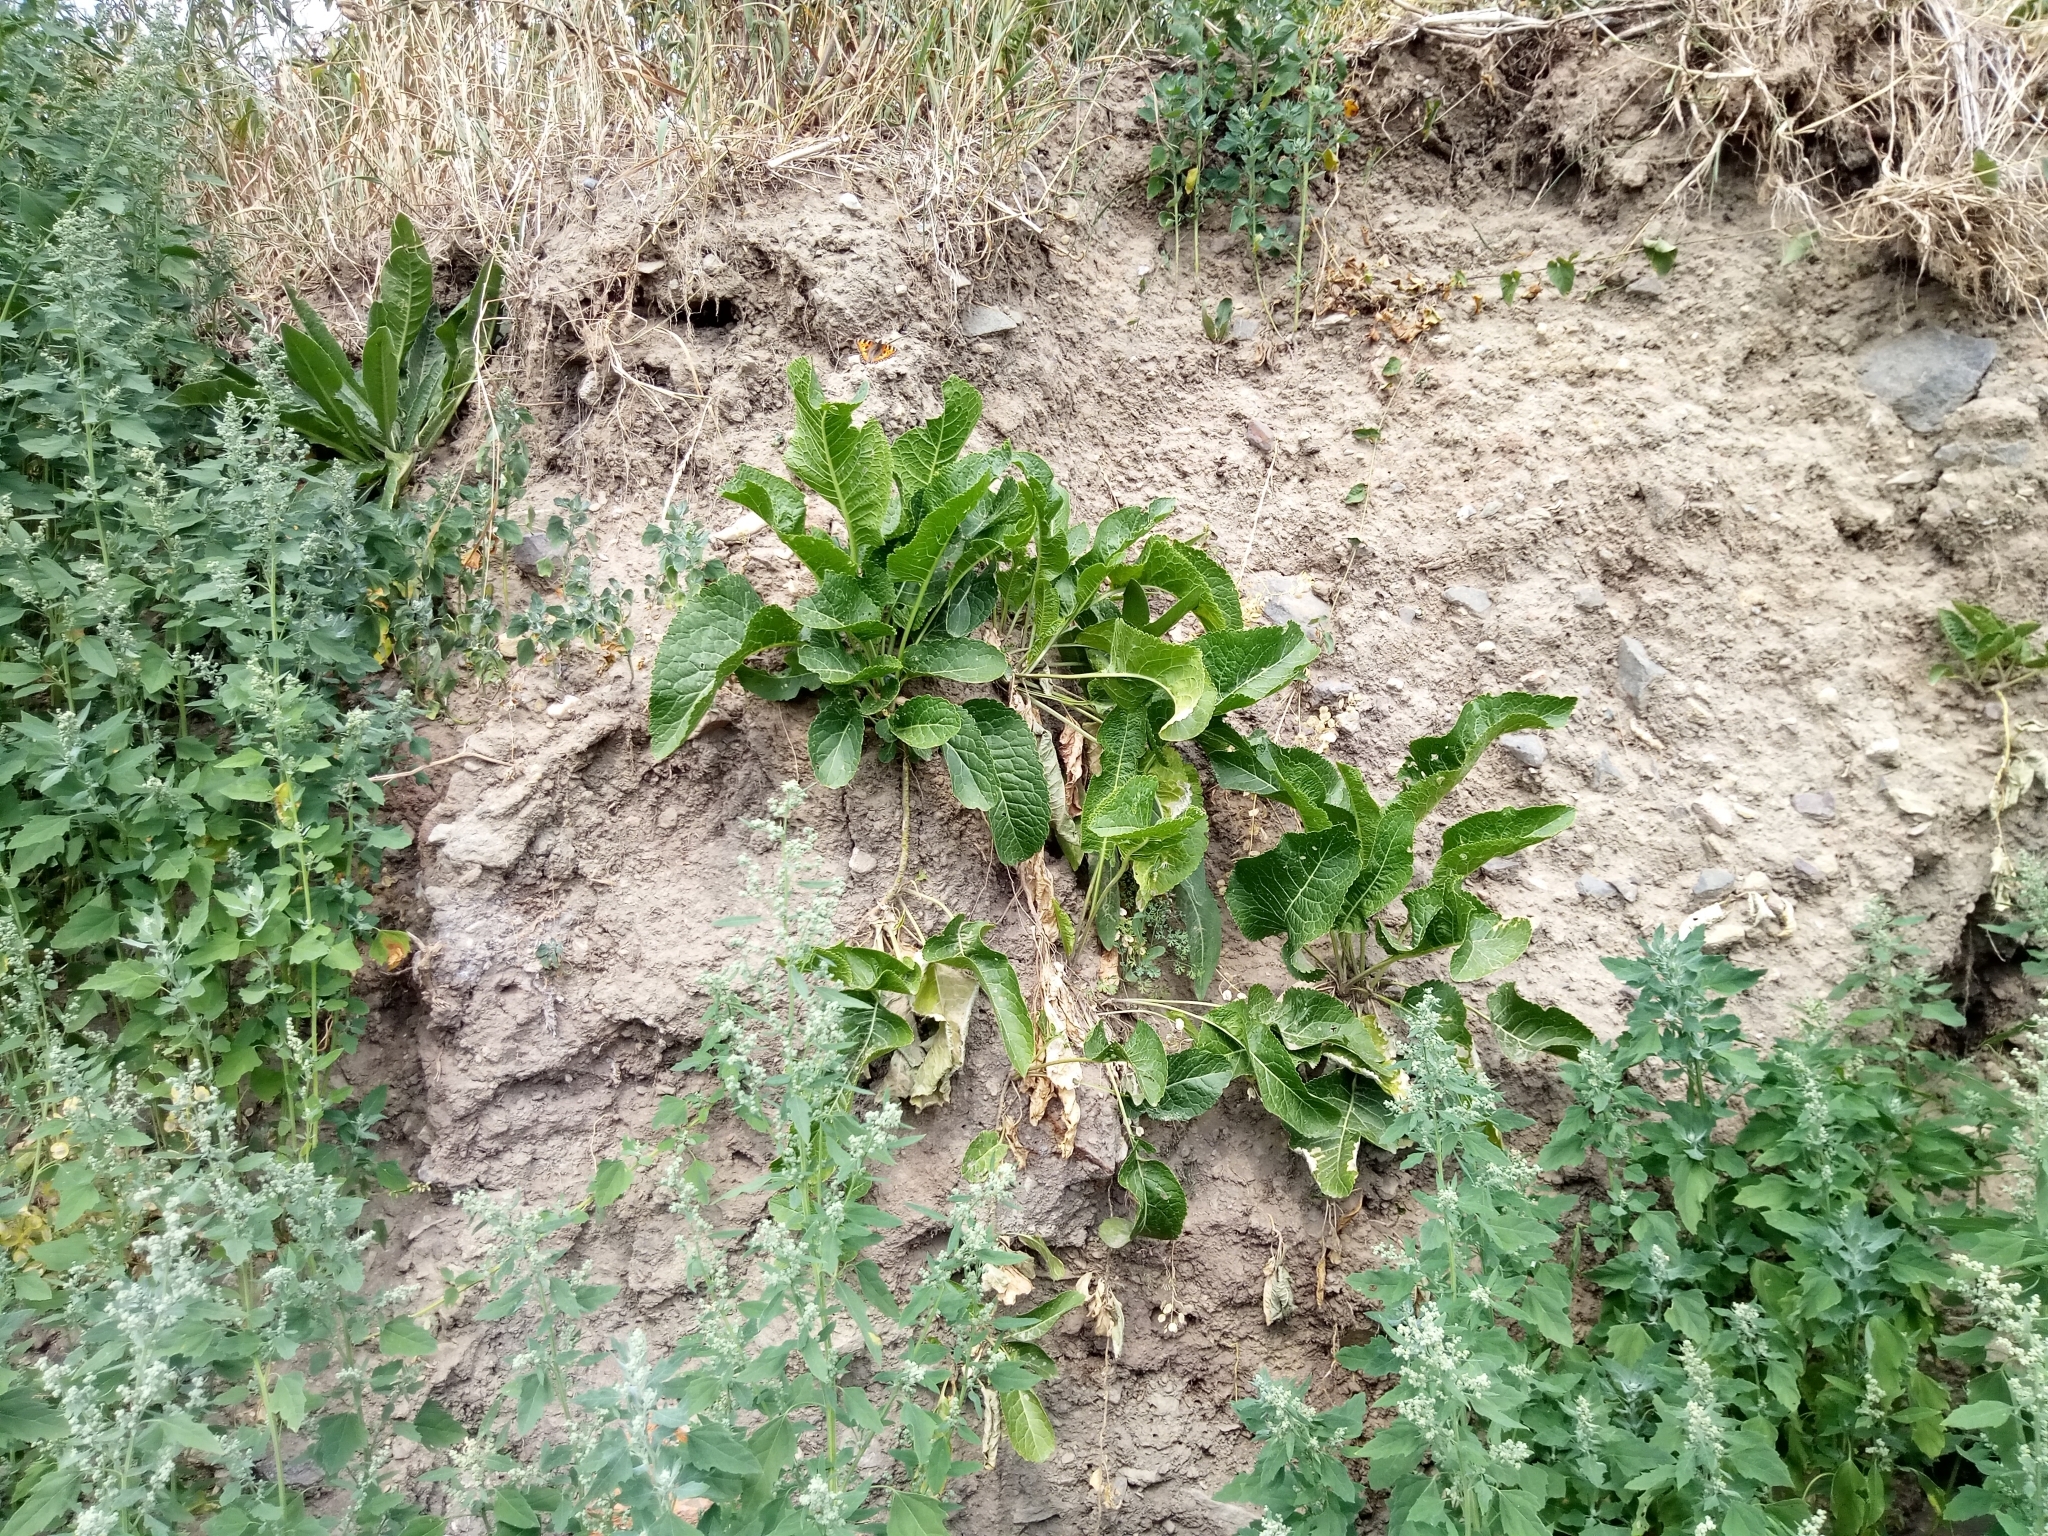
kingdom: Plantae
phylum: Tracheophyta
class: Magnoliopsida
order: Brassicales
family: Brassicaceae
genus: Armoracia
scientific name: Armoracia rusticana
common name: Horseradish
